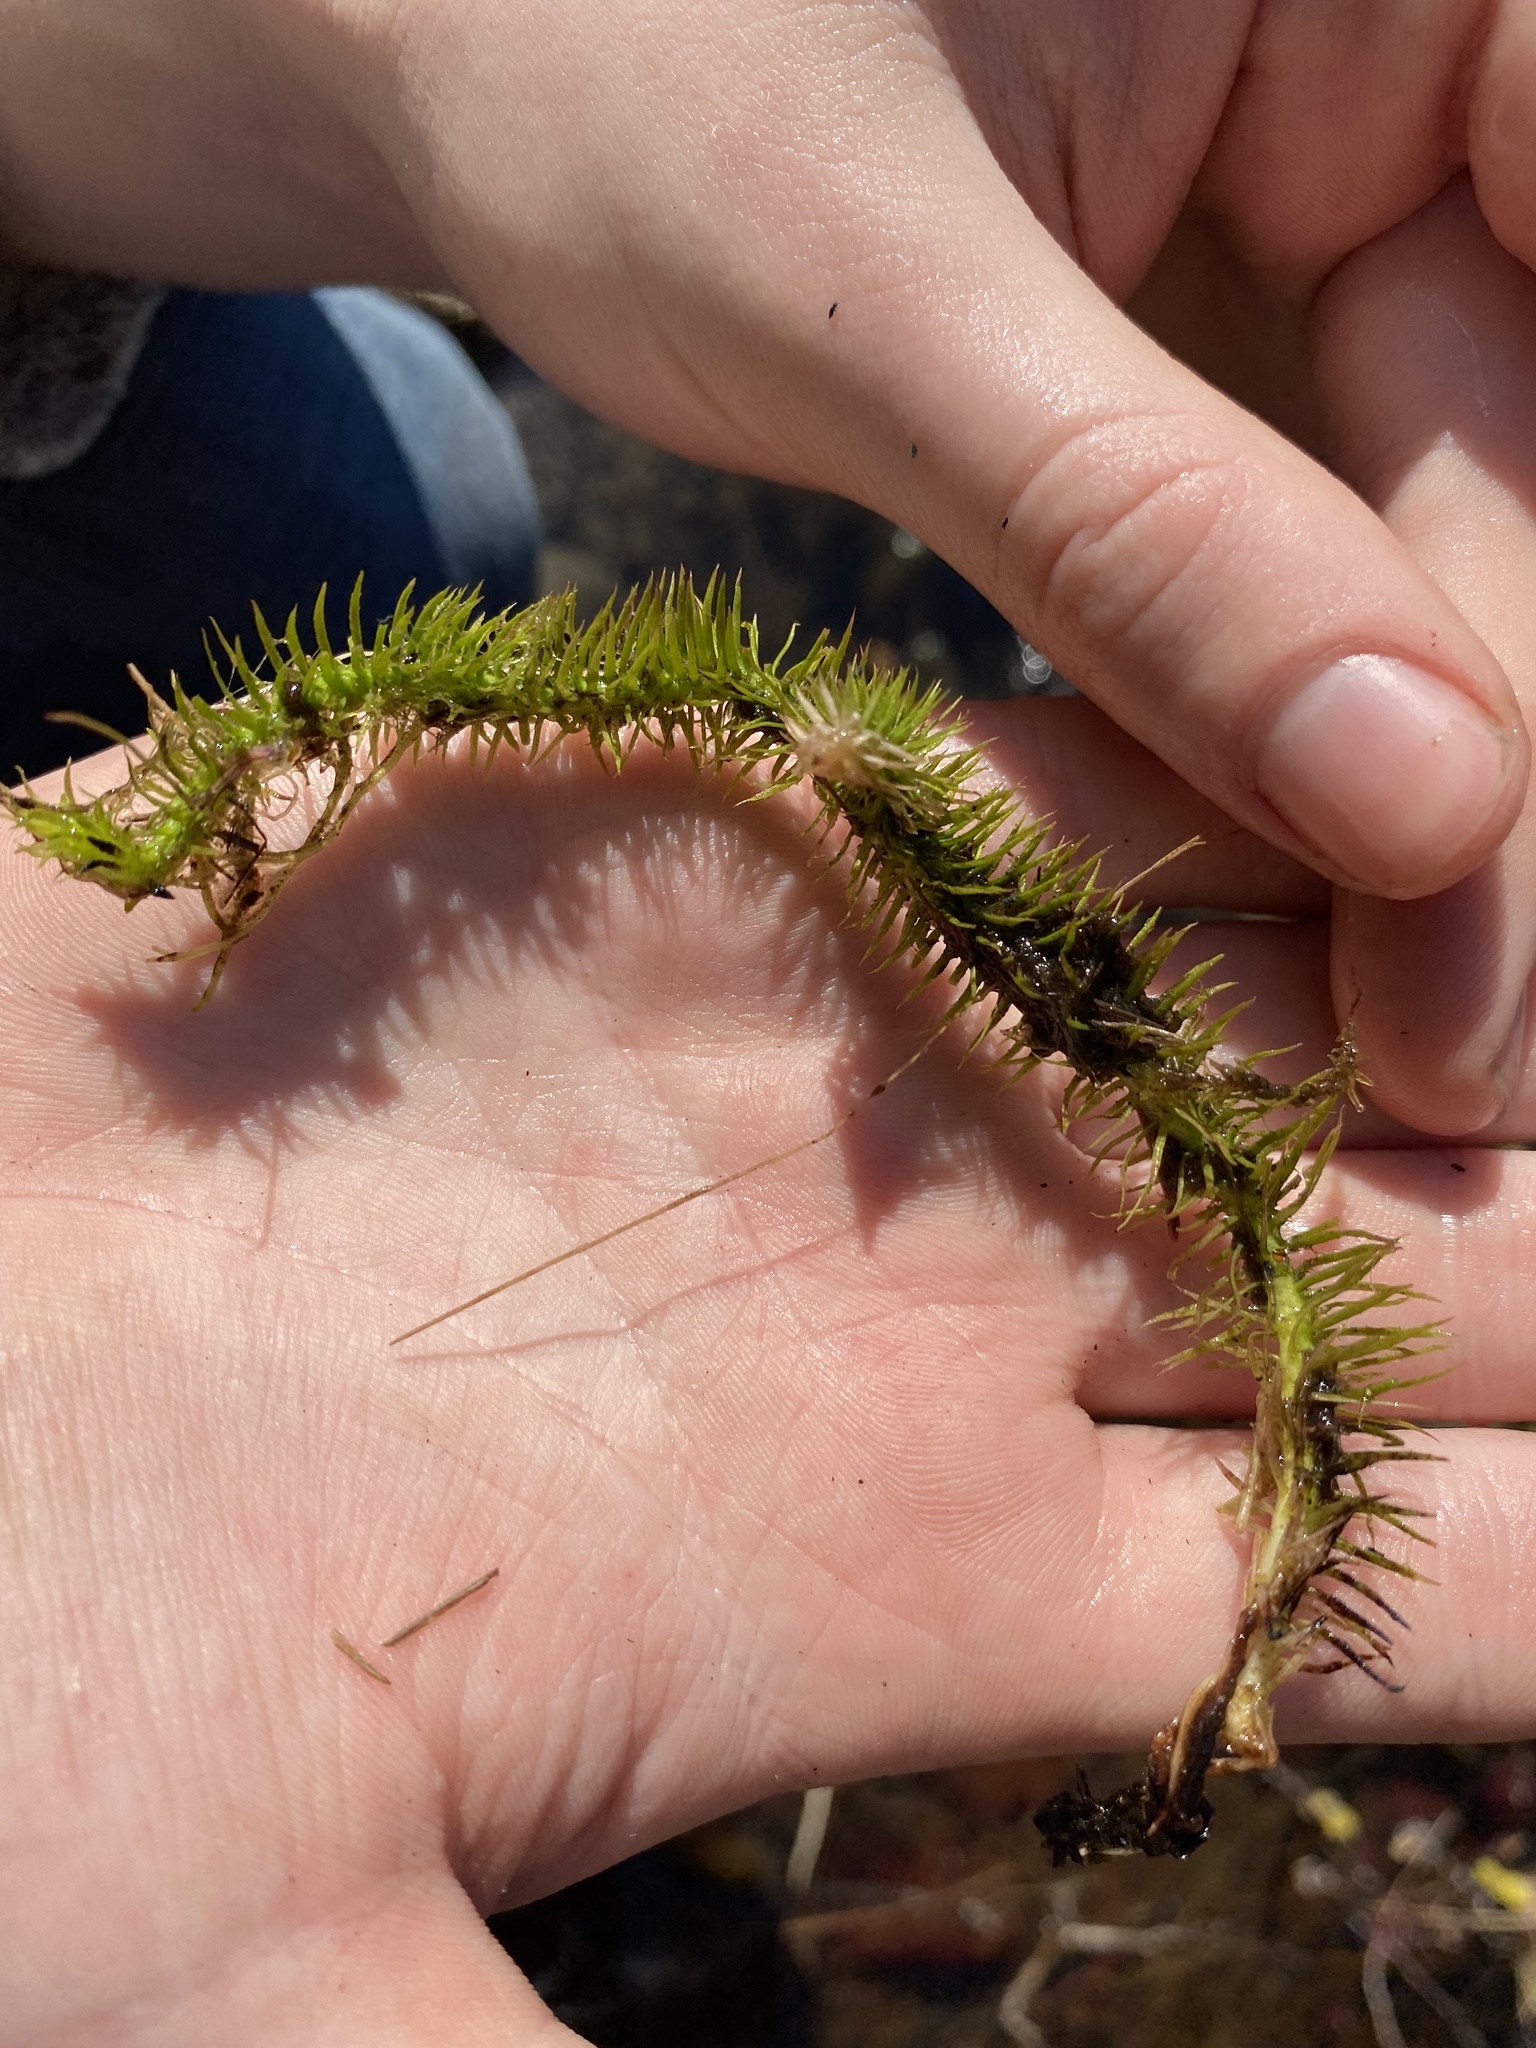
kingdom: Plantae
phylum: Tracheophyta
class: Lycopodiopsida
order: Lycopodiales
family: Lycopodiaceae
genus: Lycopodiella
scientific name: Lycopodiella alopecuroides
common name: Foxtail clubmoss
